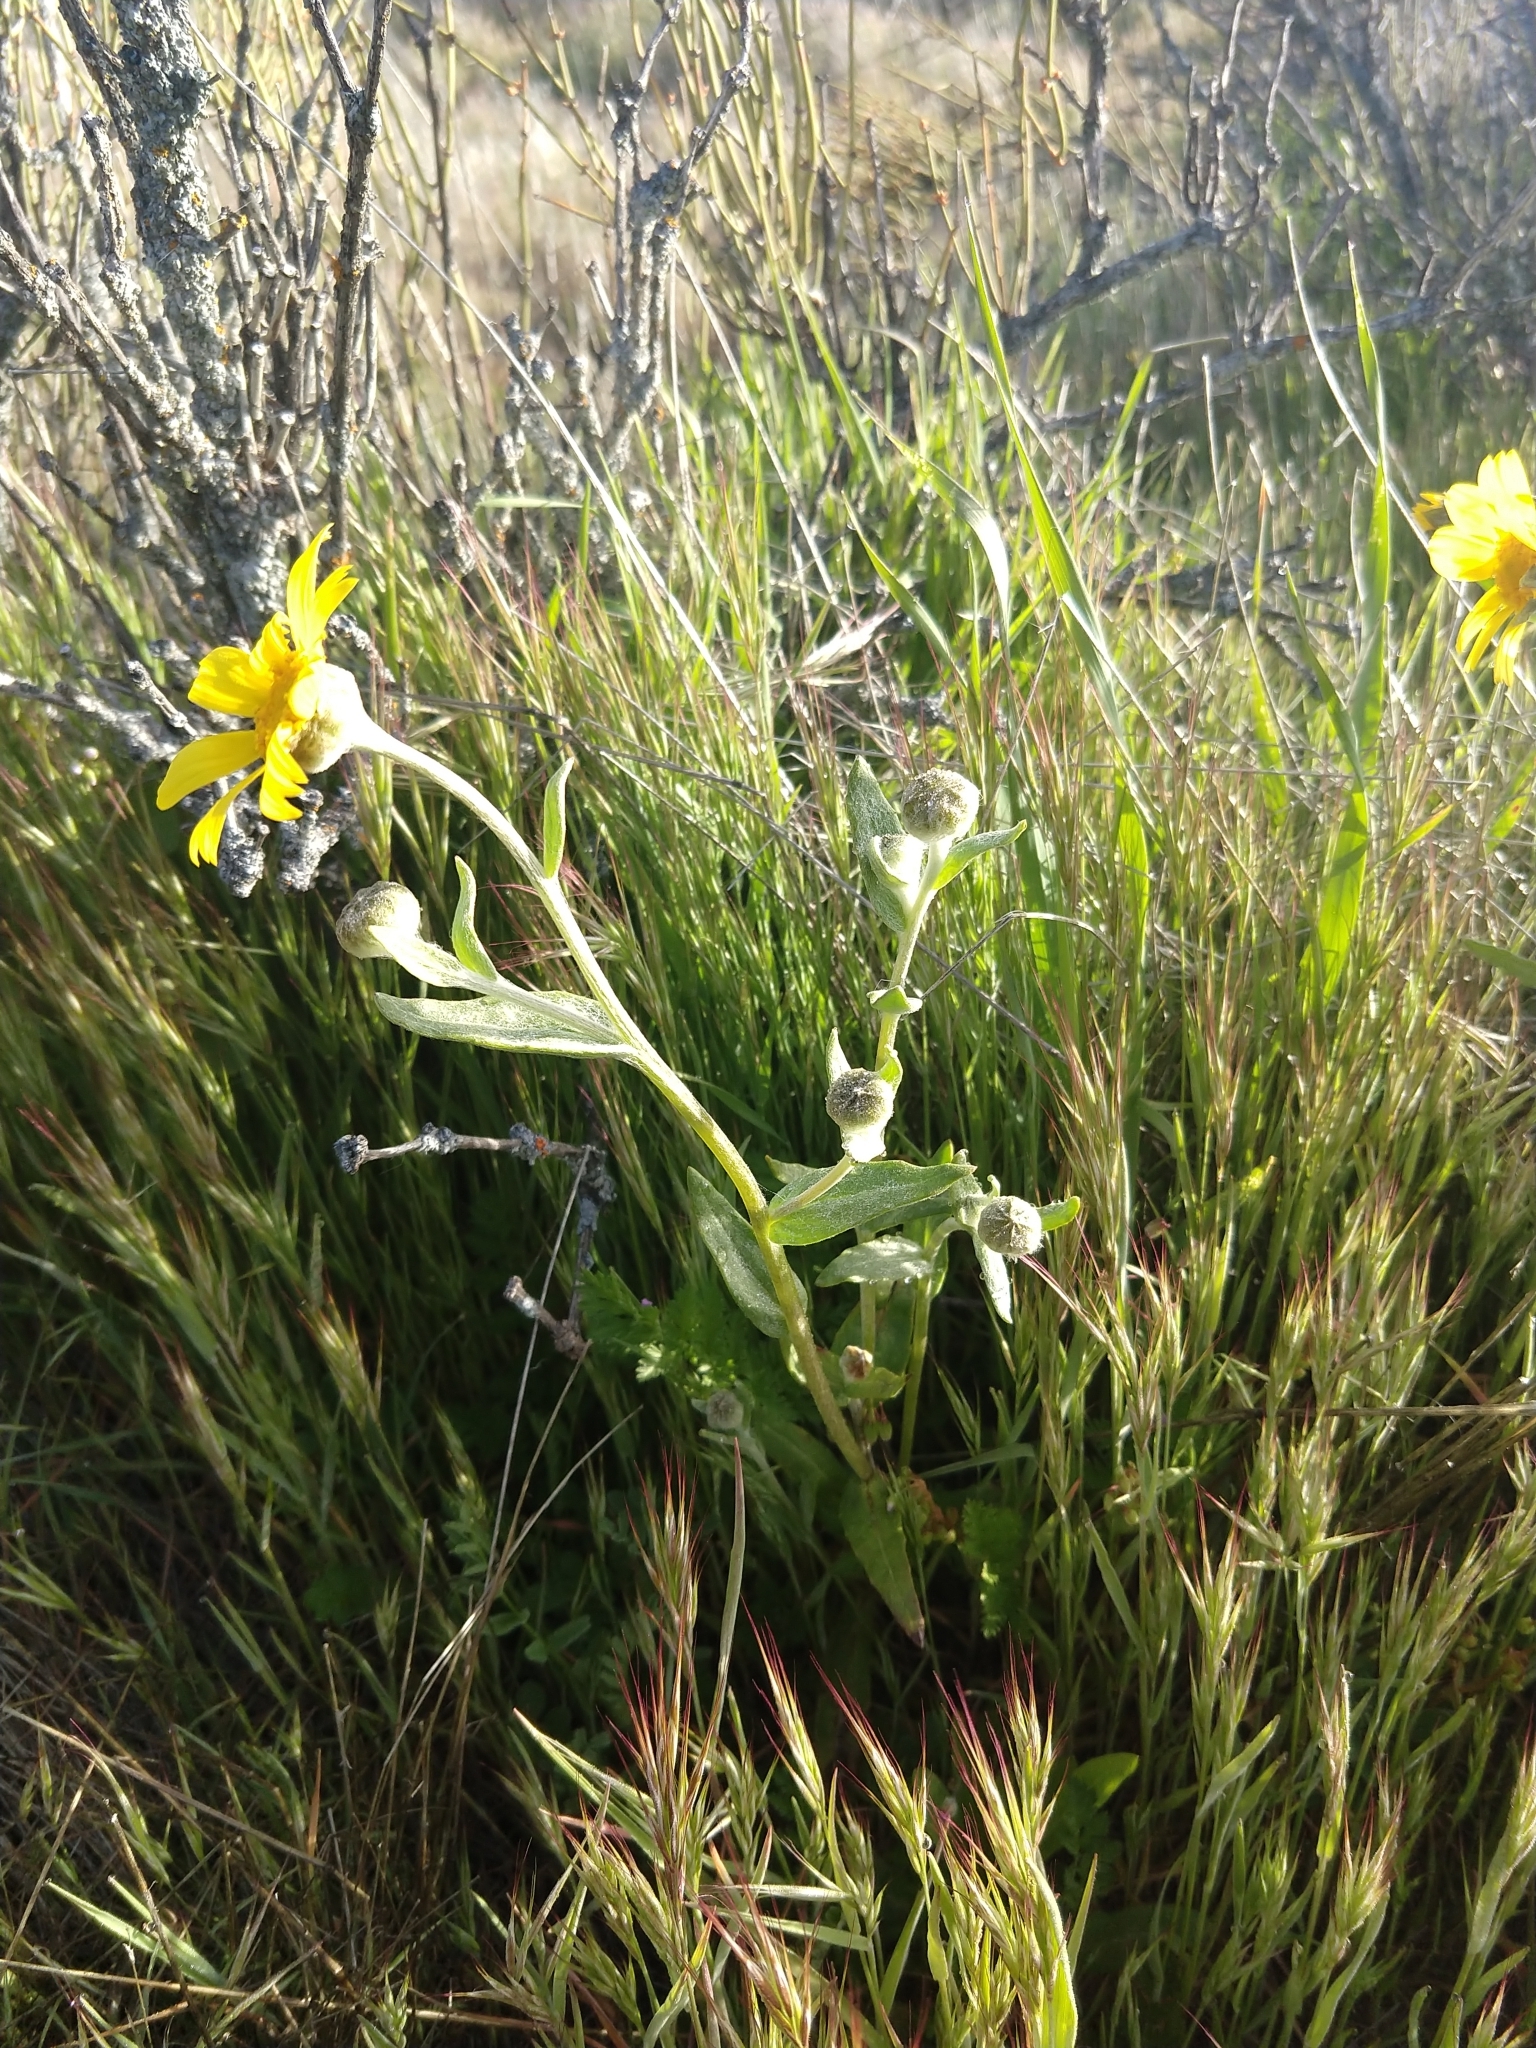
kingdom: Plantae
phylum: Tracheophyta
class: Magnoliopsida
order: Asterales
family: Asteraceae
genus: Monolopia
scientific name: Monolopia lanceolata
